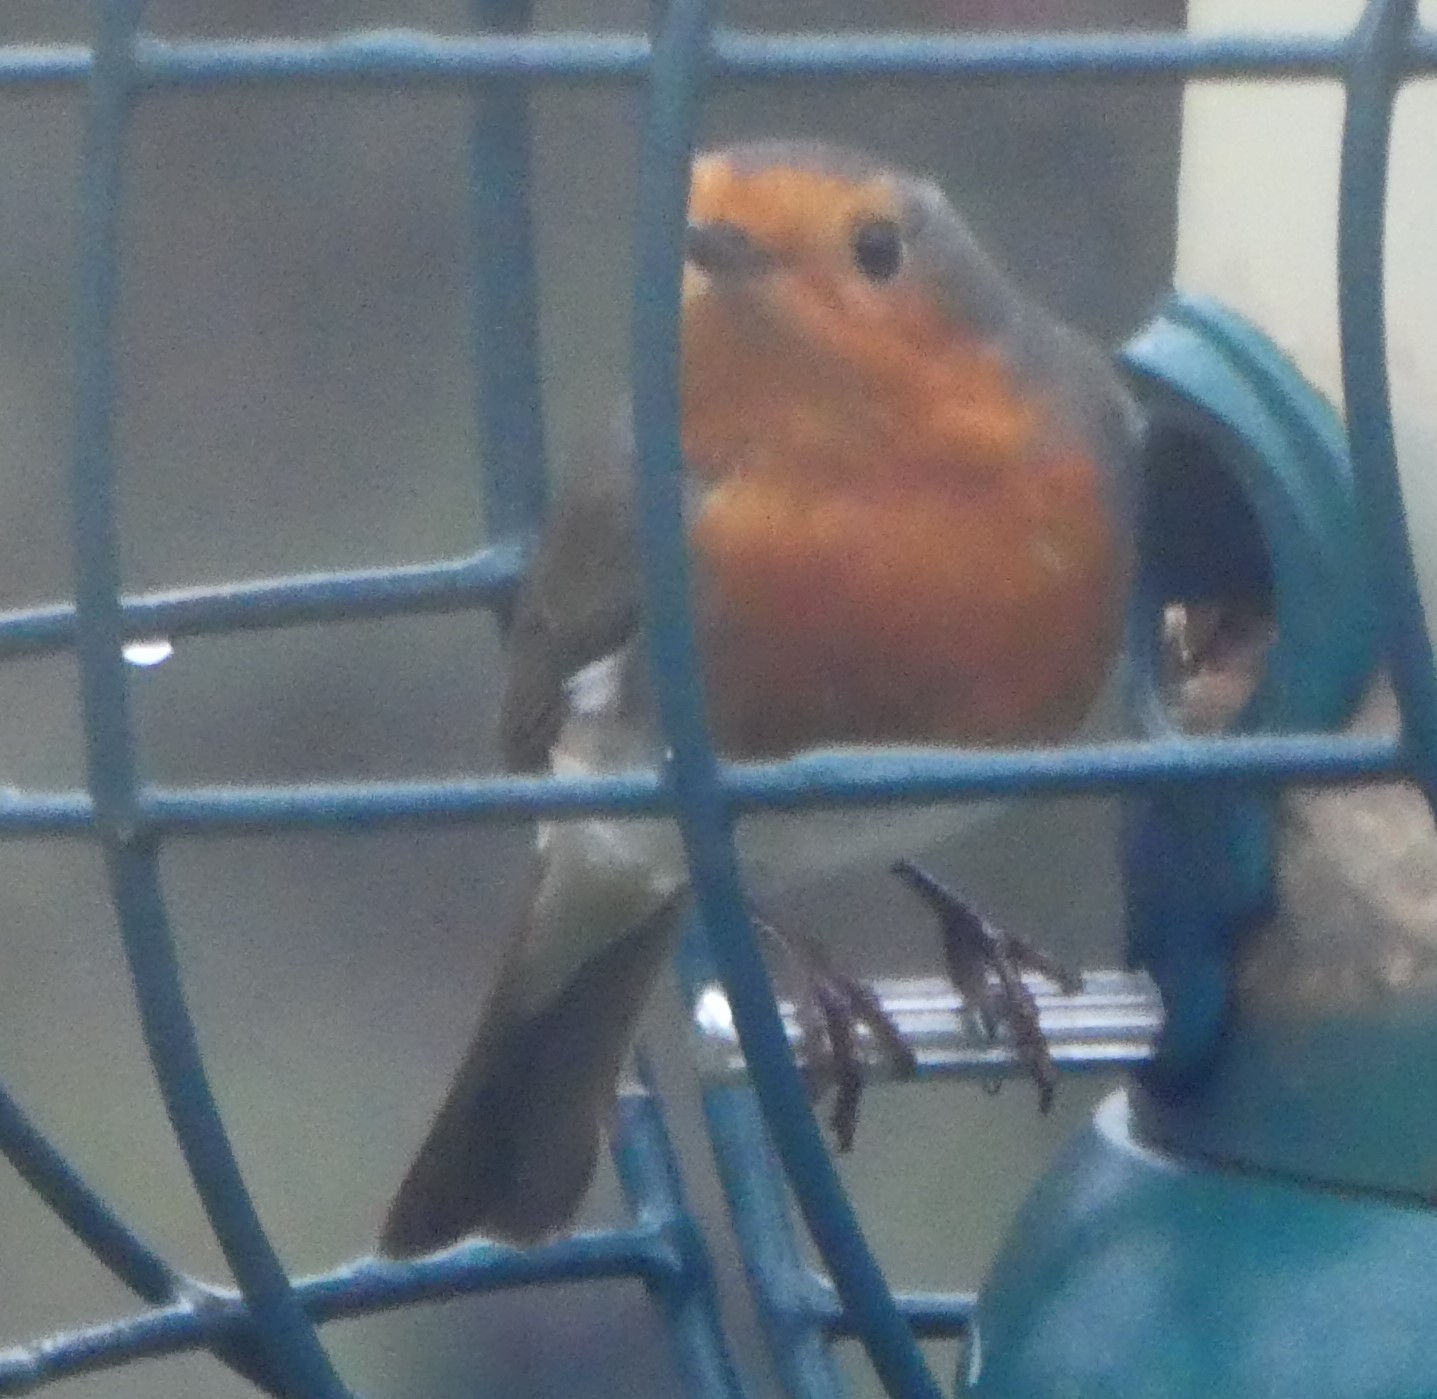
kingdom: Animalia
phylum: Chordata
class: Aves
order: Passeriformes
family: Muscicapidae
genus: Erithacus
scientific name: Erithacus rubecula
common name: European robin
